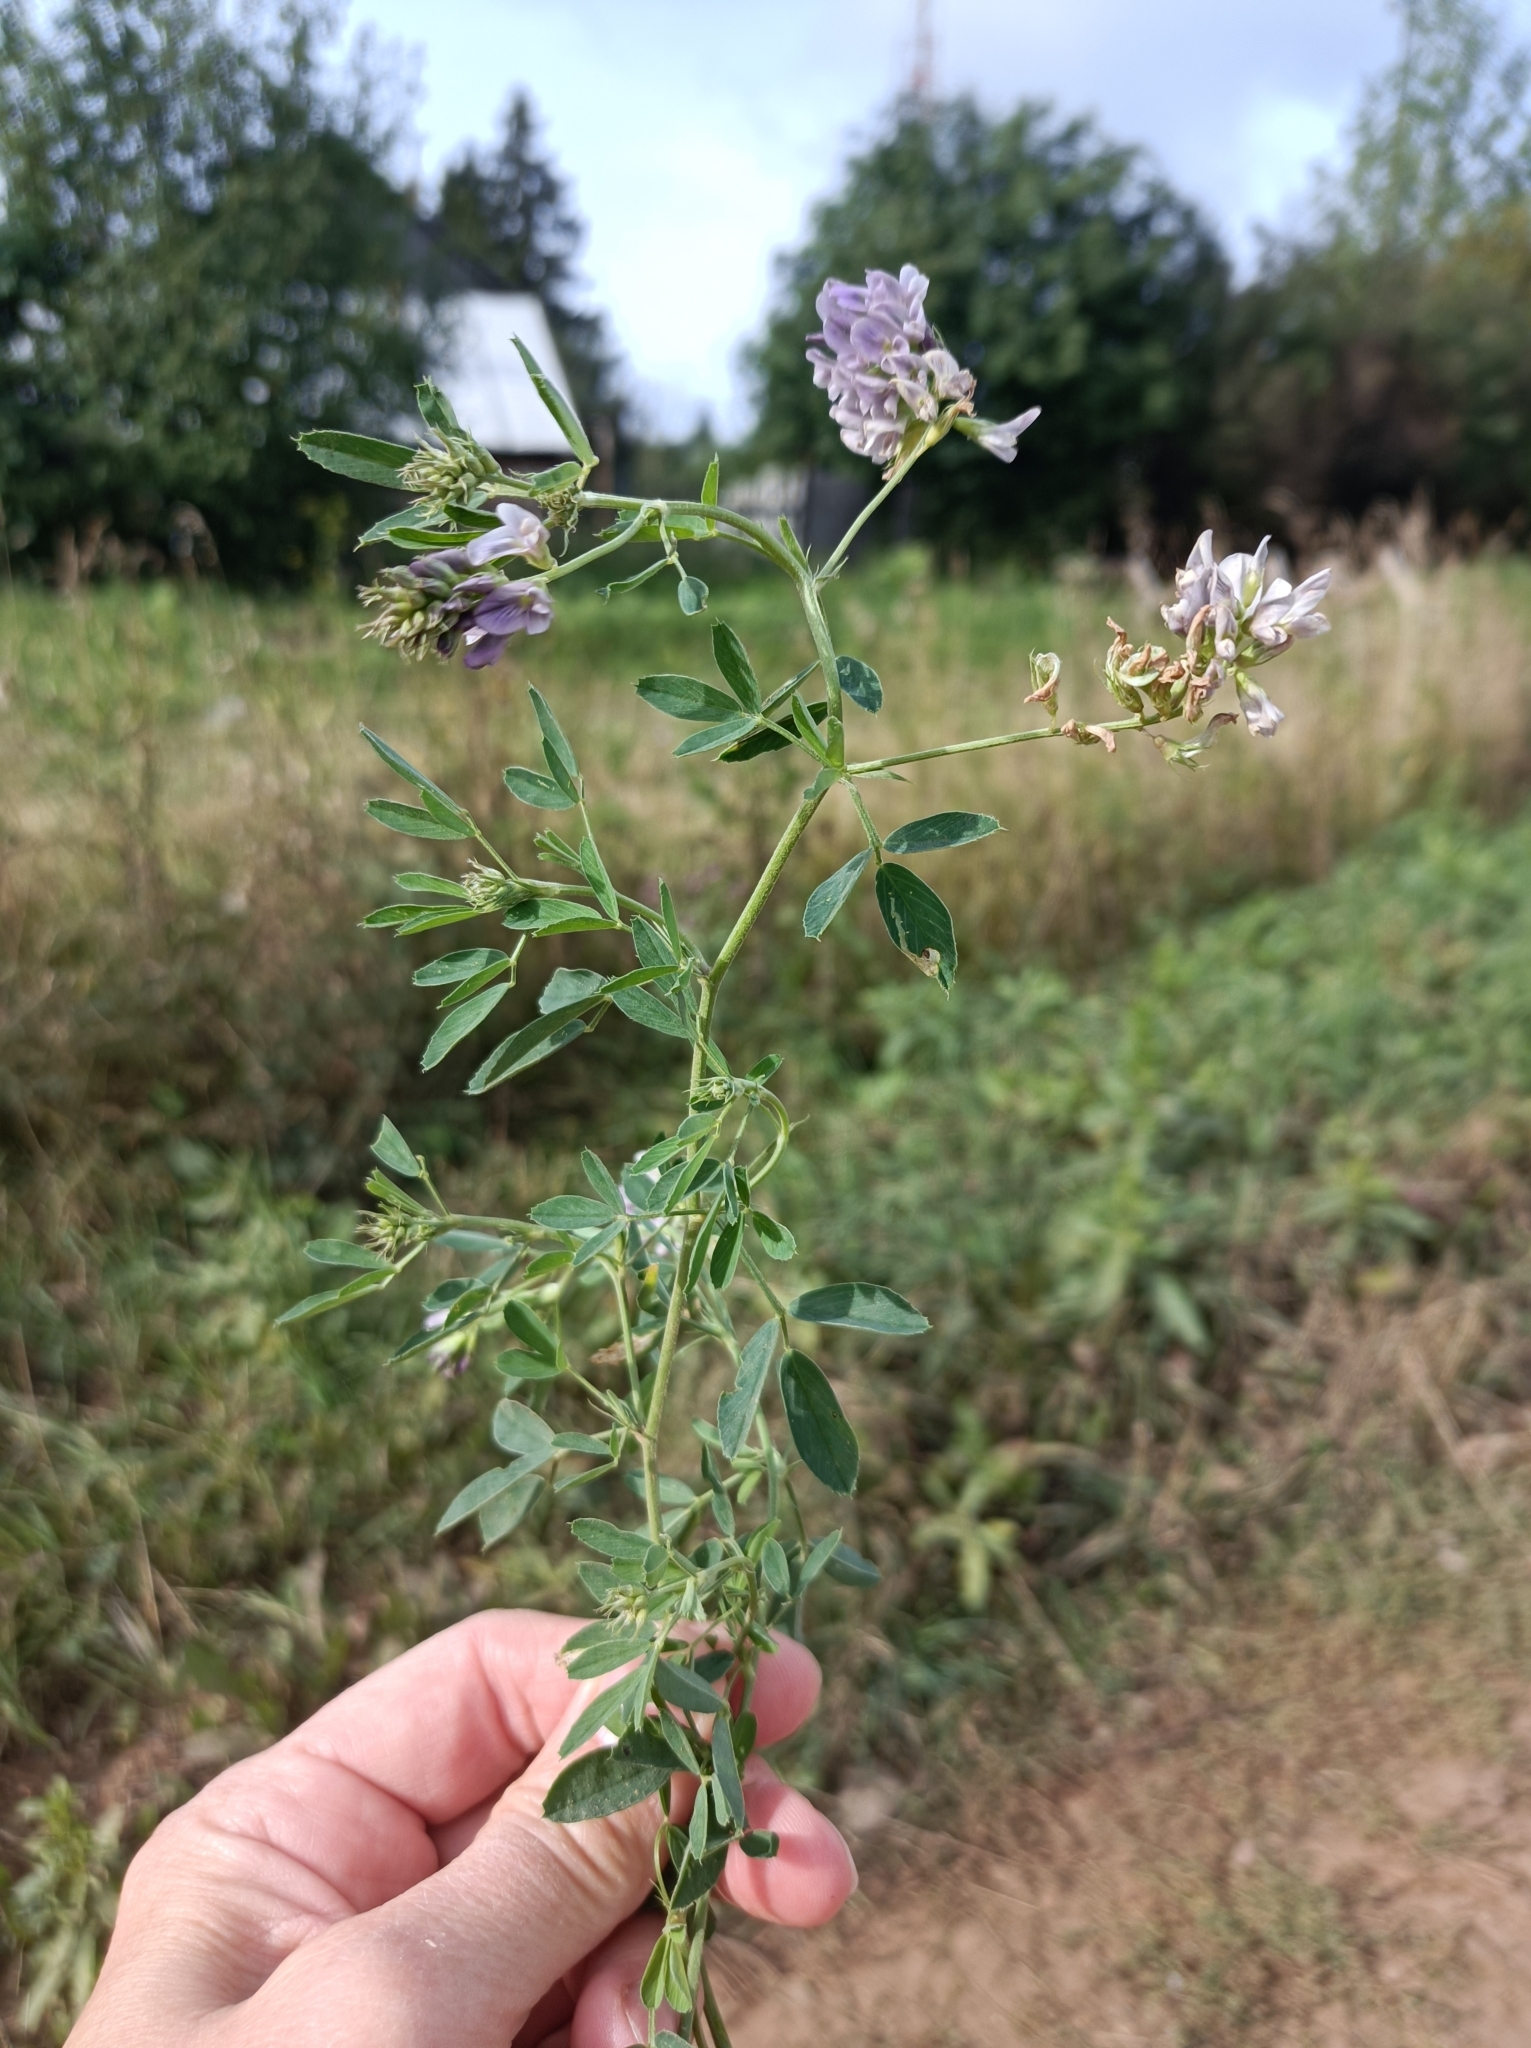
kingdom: Plantae
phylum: Tracheophyta
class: Magnoliopsida
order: Fabales
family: Fabaceae
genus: Medicago
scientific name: Medicago varia
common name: Sand lucerne
